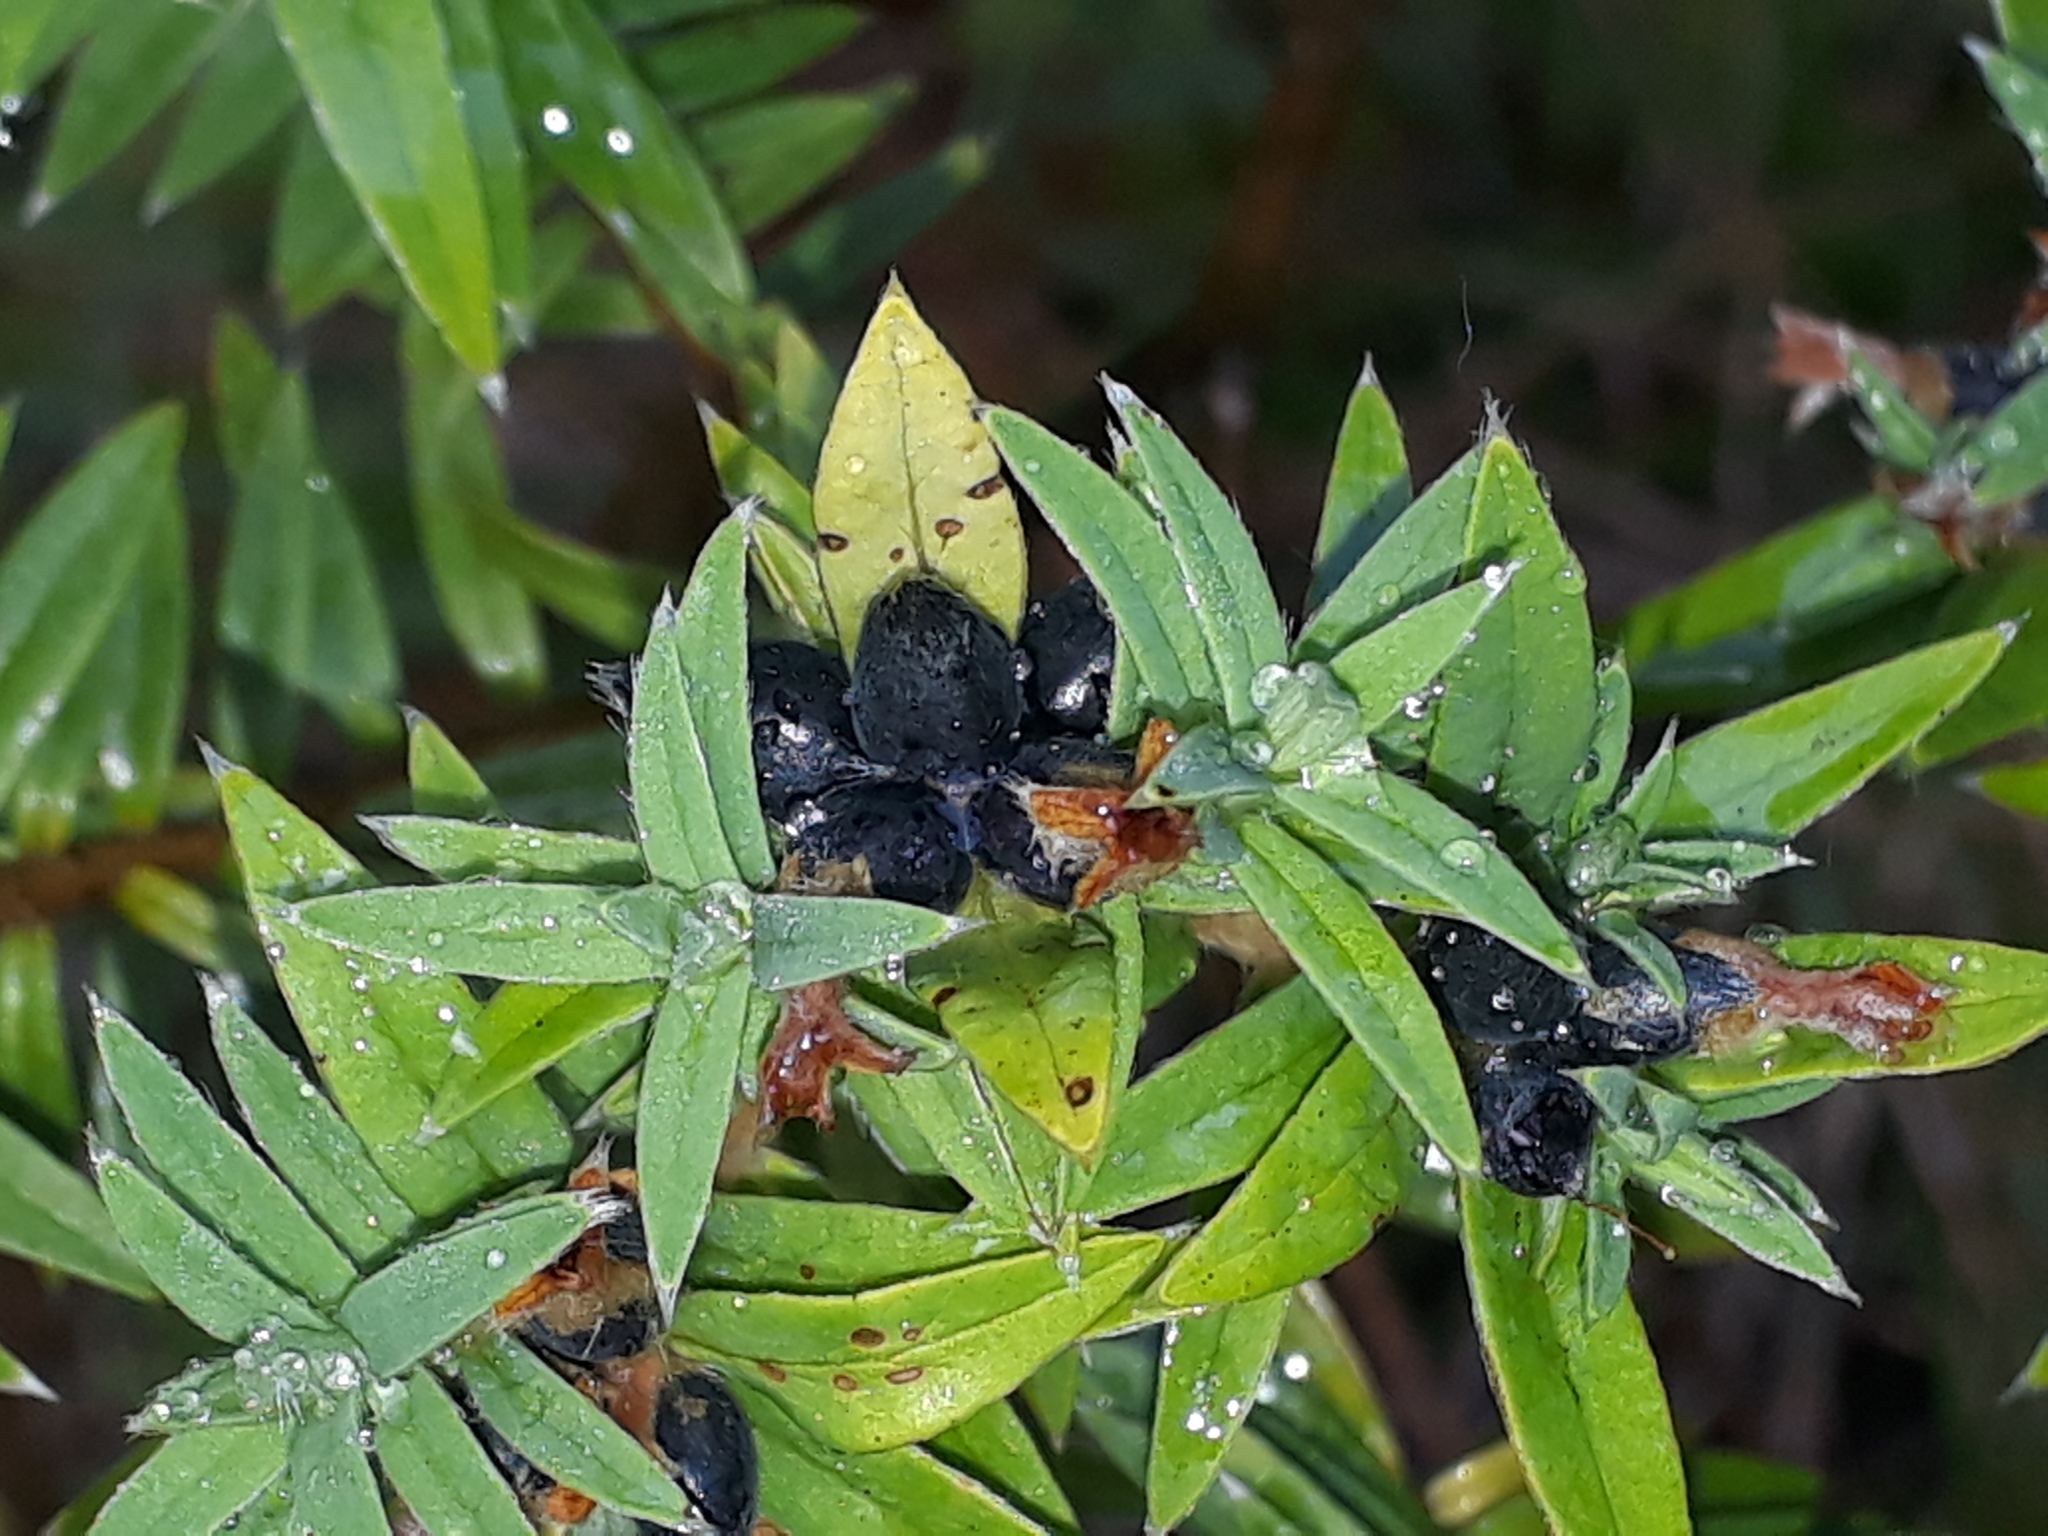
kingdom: Plantae
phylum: Tracheophyta
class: Magnoliopsida
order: Malvales
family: Thymelaeaceae
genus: Pimelea
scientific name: Pimelea tomentosa
